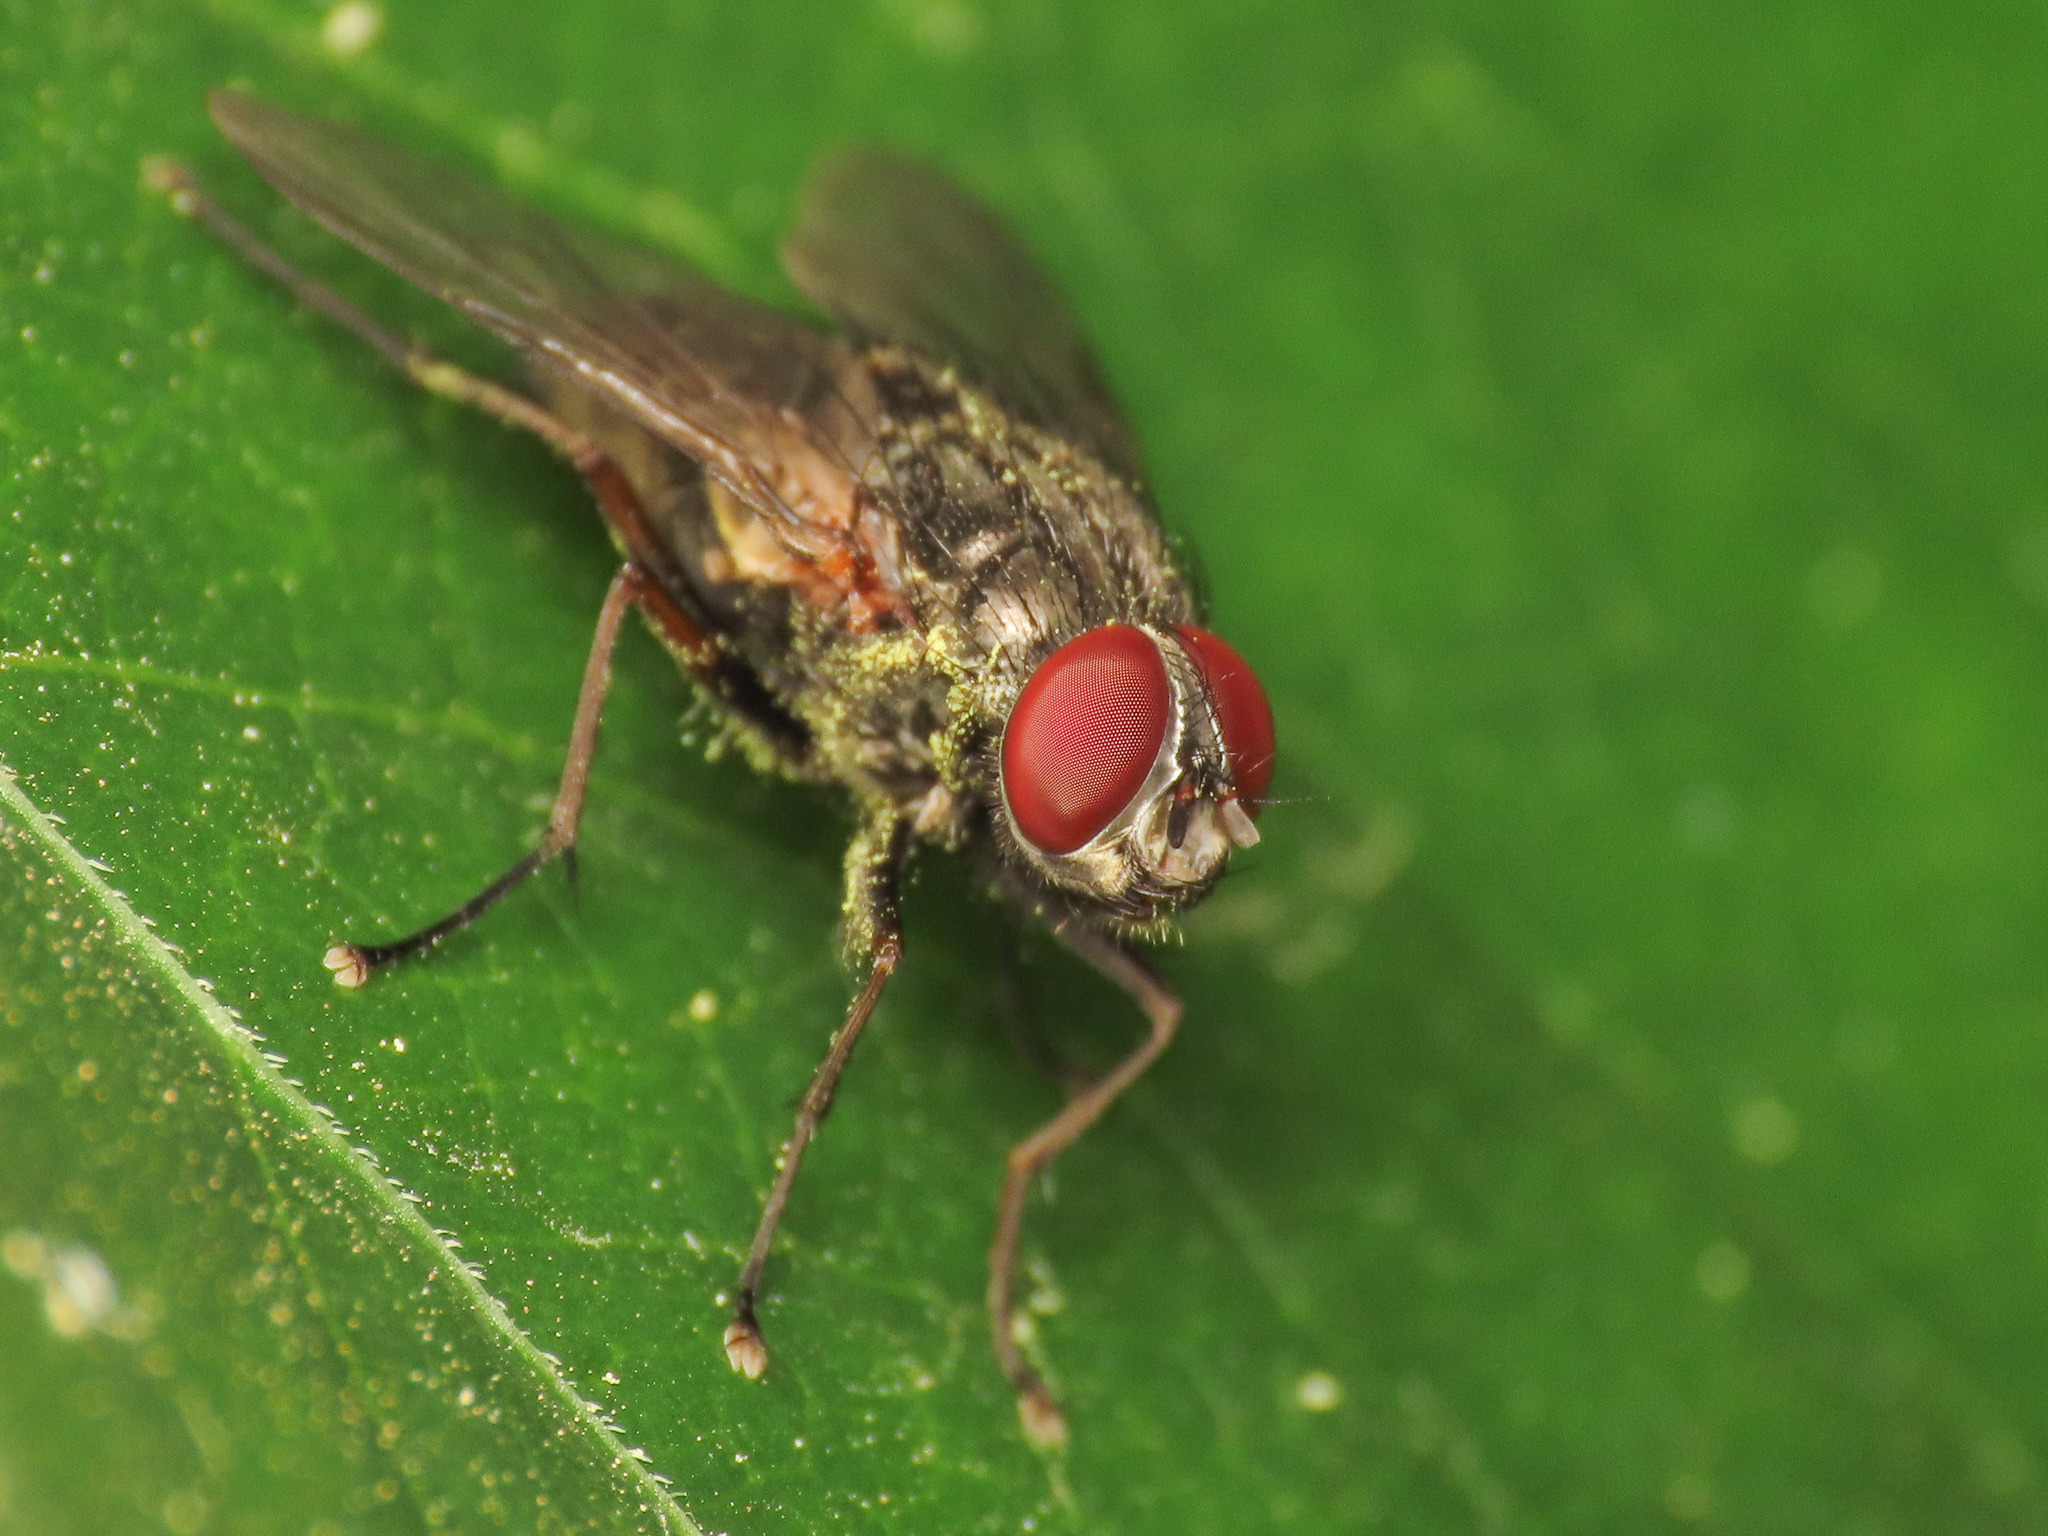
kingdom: Animalia
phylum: Arthropoda
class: Insecta
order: Diptera
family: Muscidae
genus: Muscina
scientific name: Muscina stabulans
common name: False stable fly
